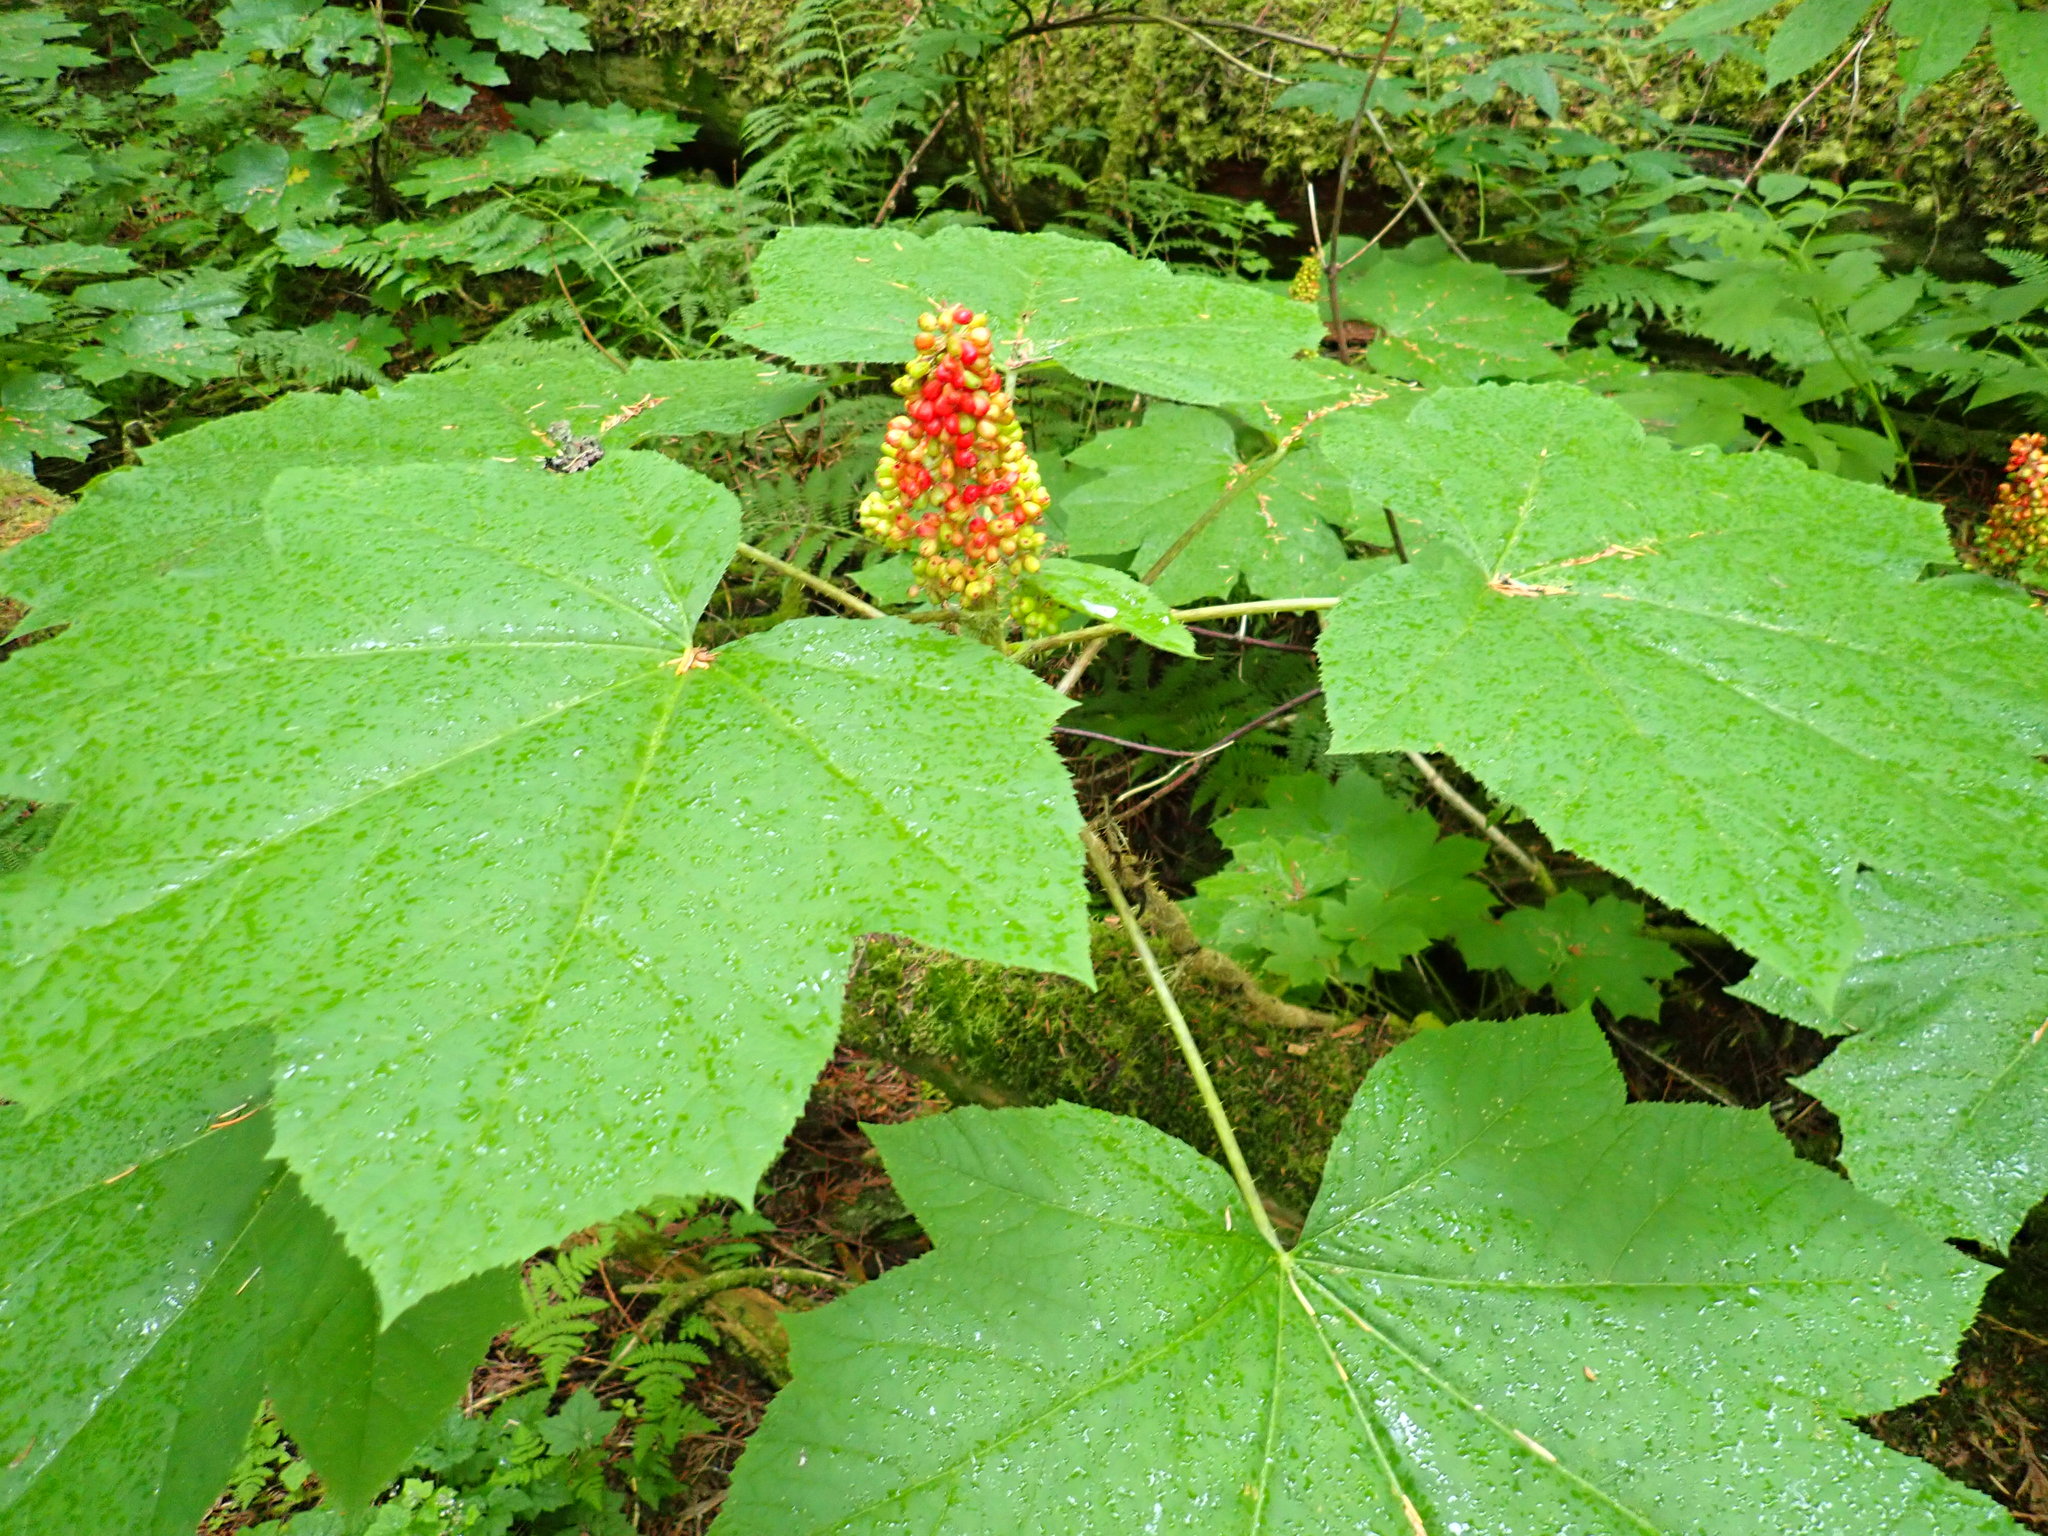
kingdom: Plantae
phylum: Tracheophyta
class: Magnoliopsida
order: Apiales
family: Araliaceae
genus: Oplopanax
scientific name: Oplopanax horridus
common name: Devil's walking-stick
